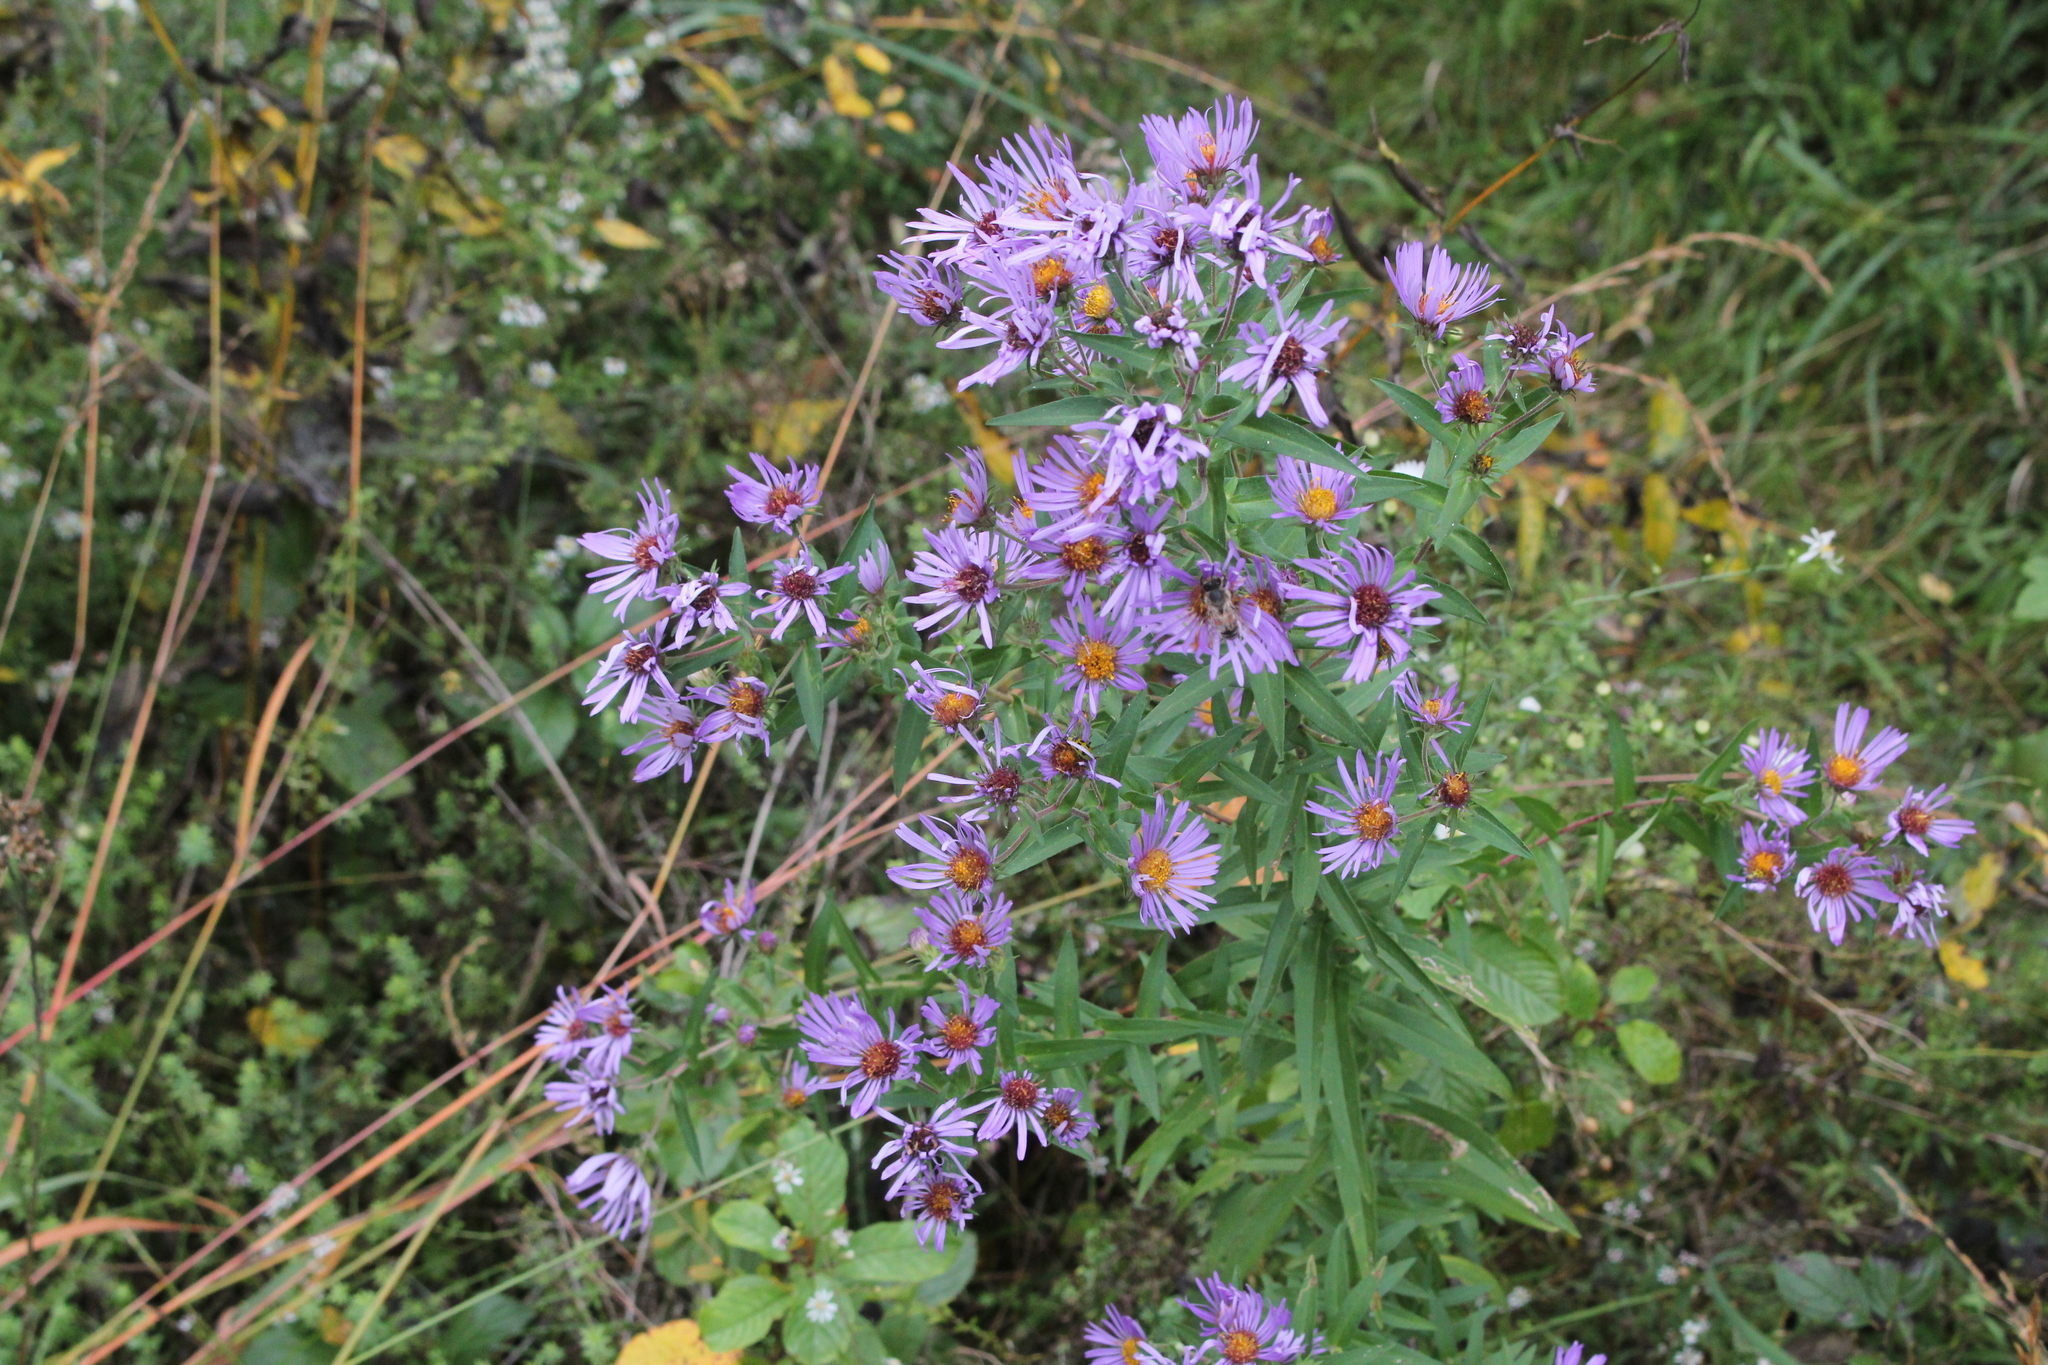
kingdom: Plantae
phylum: Tracheophyta
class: Magnoliopsida
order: Asterales
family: Asteraceae
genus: Symphyotrichum
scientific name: Symphyotrichum novae-angliae
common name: Michaelmas daisy
